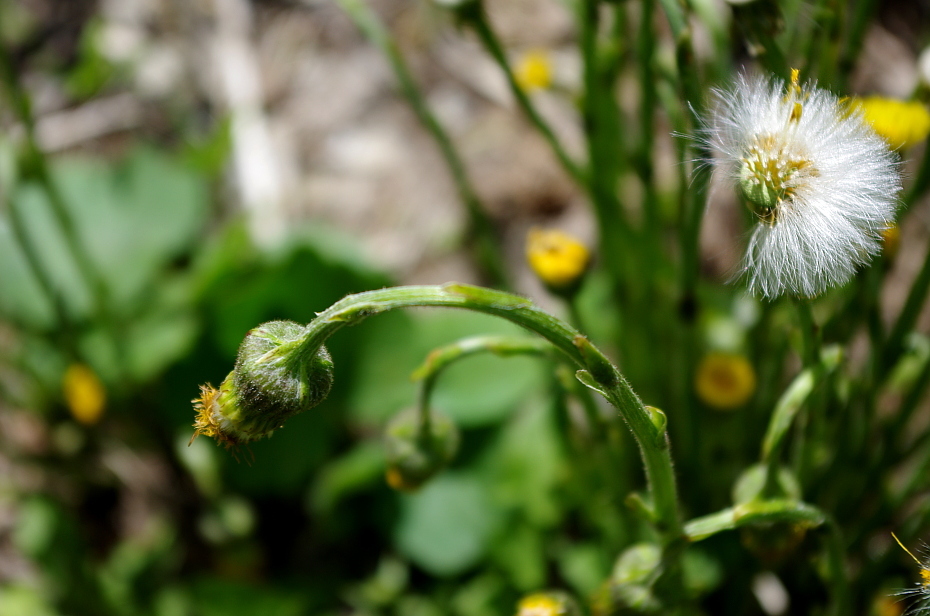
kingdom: Plantae
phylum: Tracheophyta
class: Magnoliopsida
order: Asterales
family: Asteraceae
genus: Tussilago
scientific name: Tussilago farfara
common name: Coltsfoot
